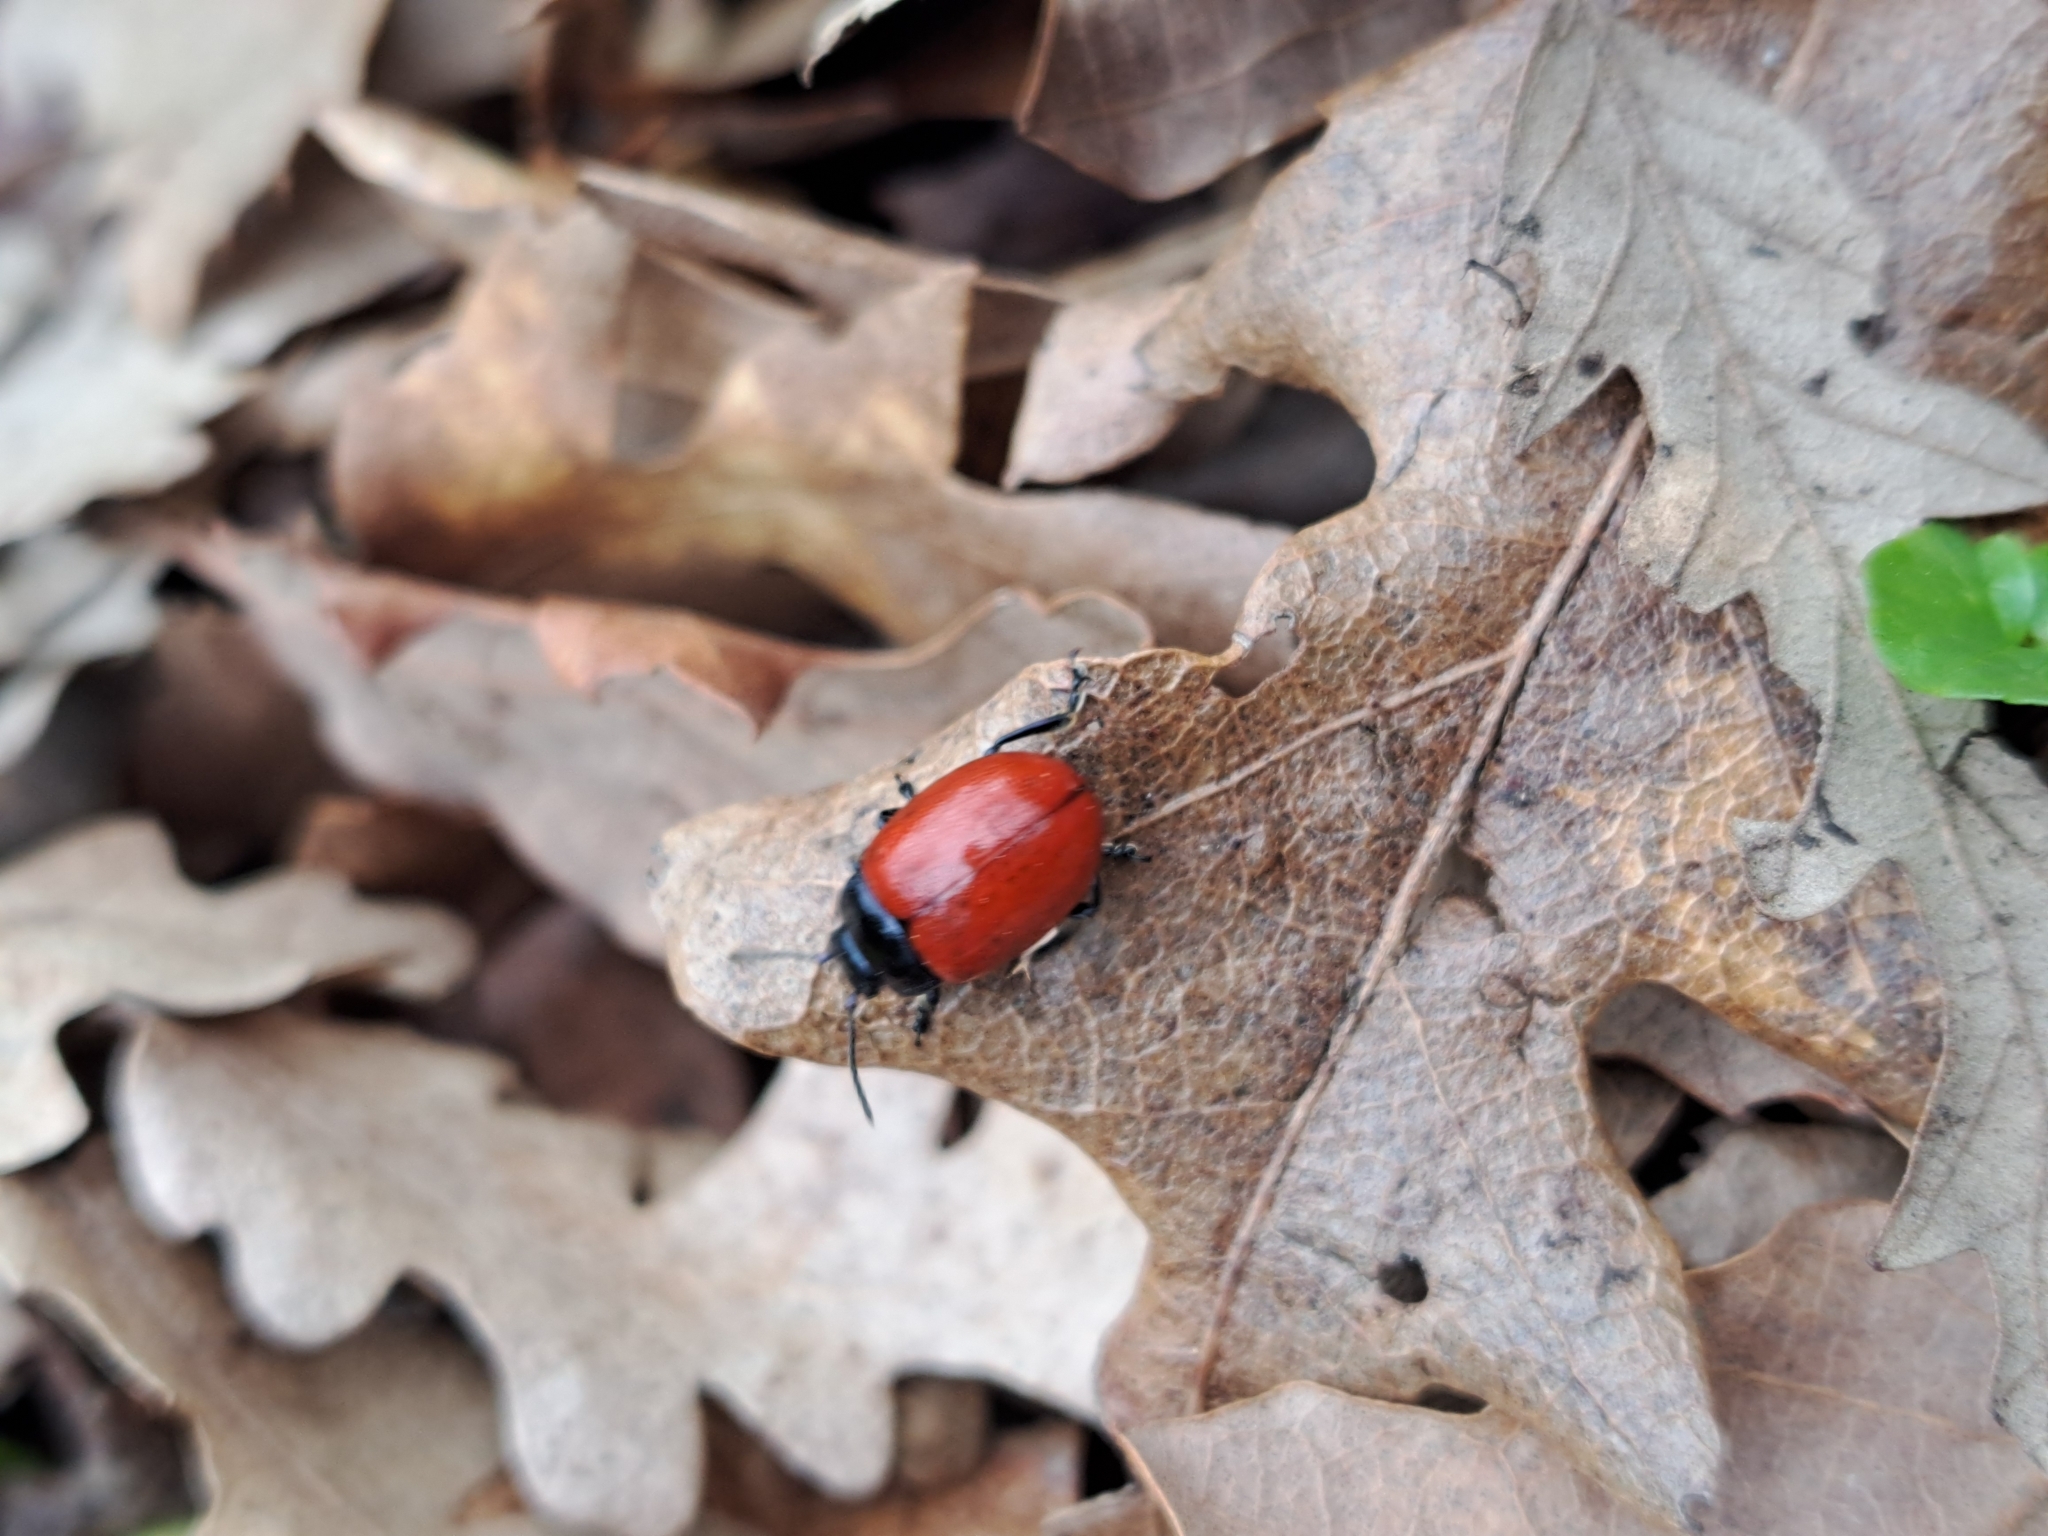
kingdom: Animalia
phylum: Arthropoda
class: Insecta
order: Coleoptera
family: Chrysomelidae
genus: Chrysomela
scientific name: Chrysomela populi
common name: Red poplar leaf beetle
